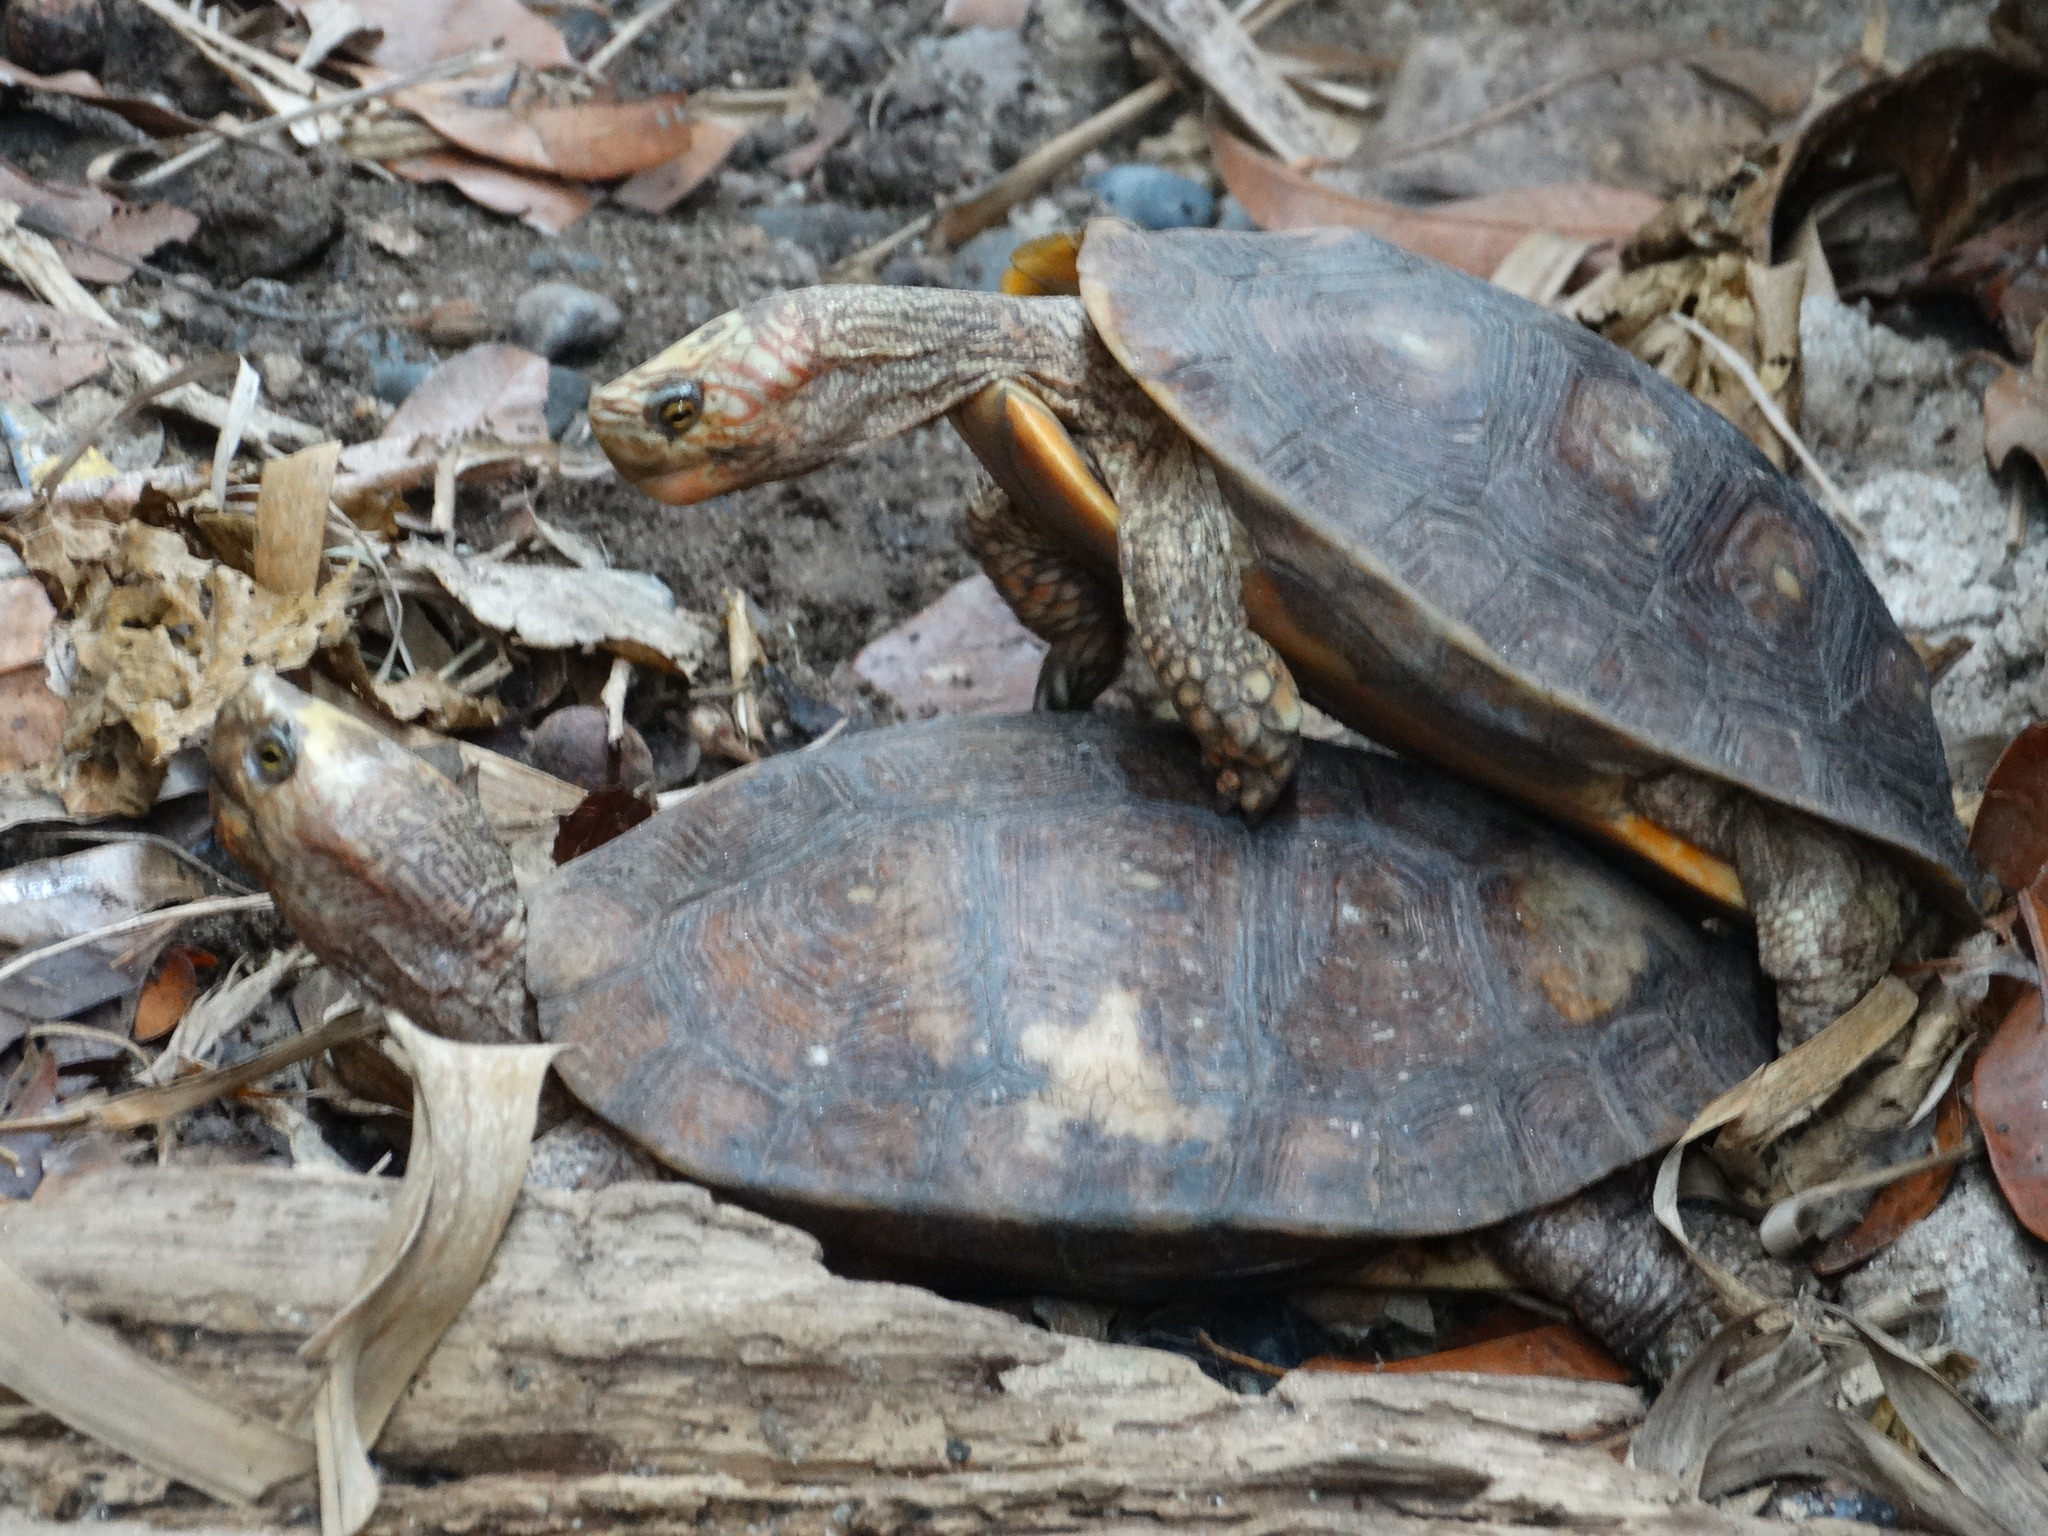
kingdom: Animalia
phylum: Chordata
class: Testudines
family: Geoemydidae
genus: Rhinoclemmys
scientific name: Rhinoclemmys rubida
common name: Mexican spotted wood turtle
